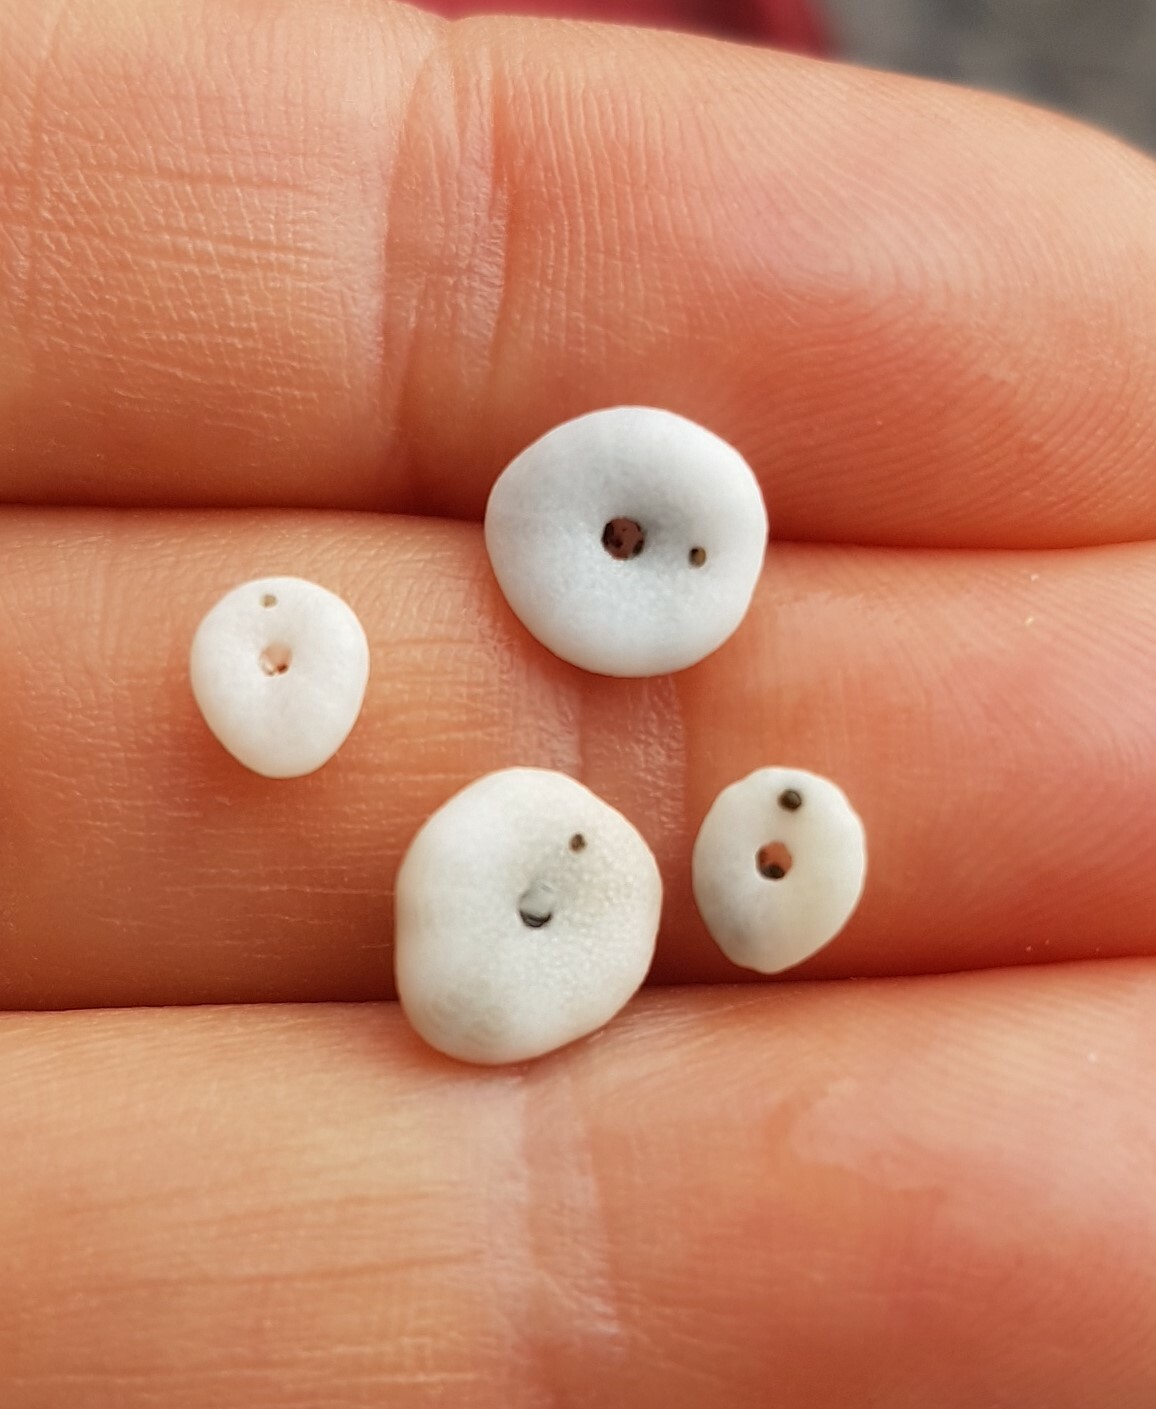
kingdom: Animalia
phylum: Echinodermata
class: Echinoidea
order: Echinolampadacea
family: Fibulariidae
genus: Echinocyamus
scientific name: Echinocyamus pusillus
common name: Broad beau of sea
